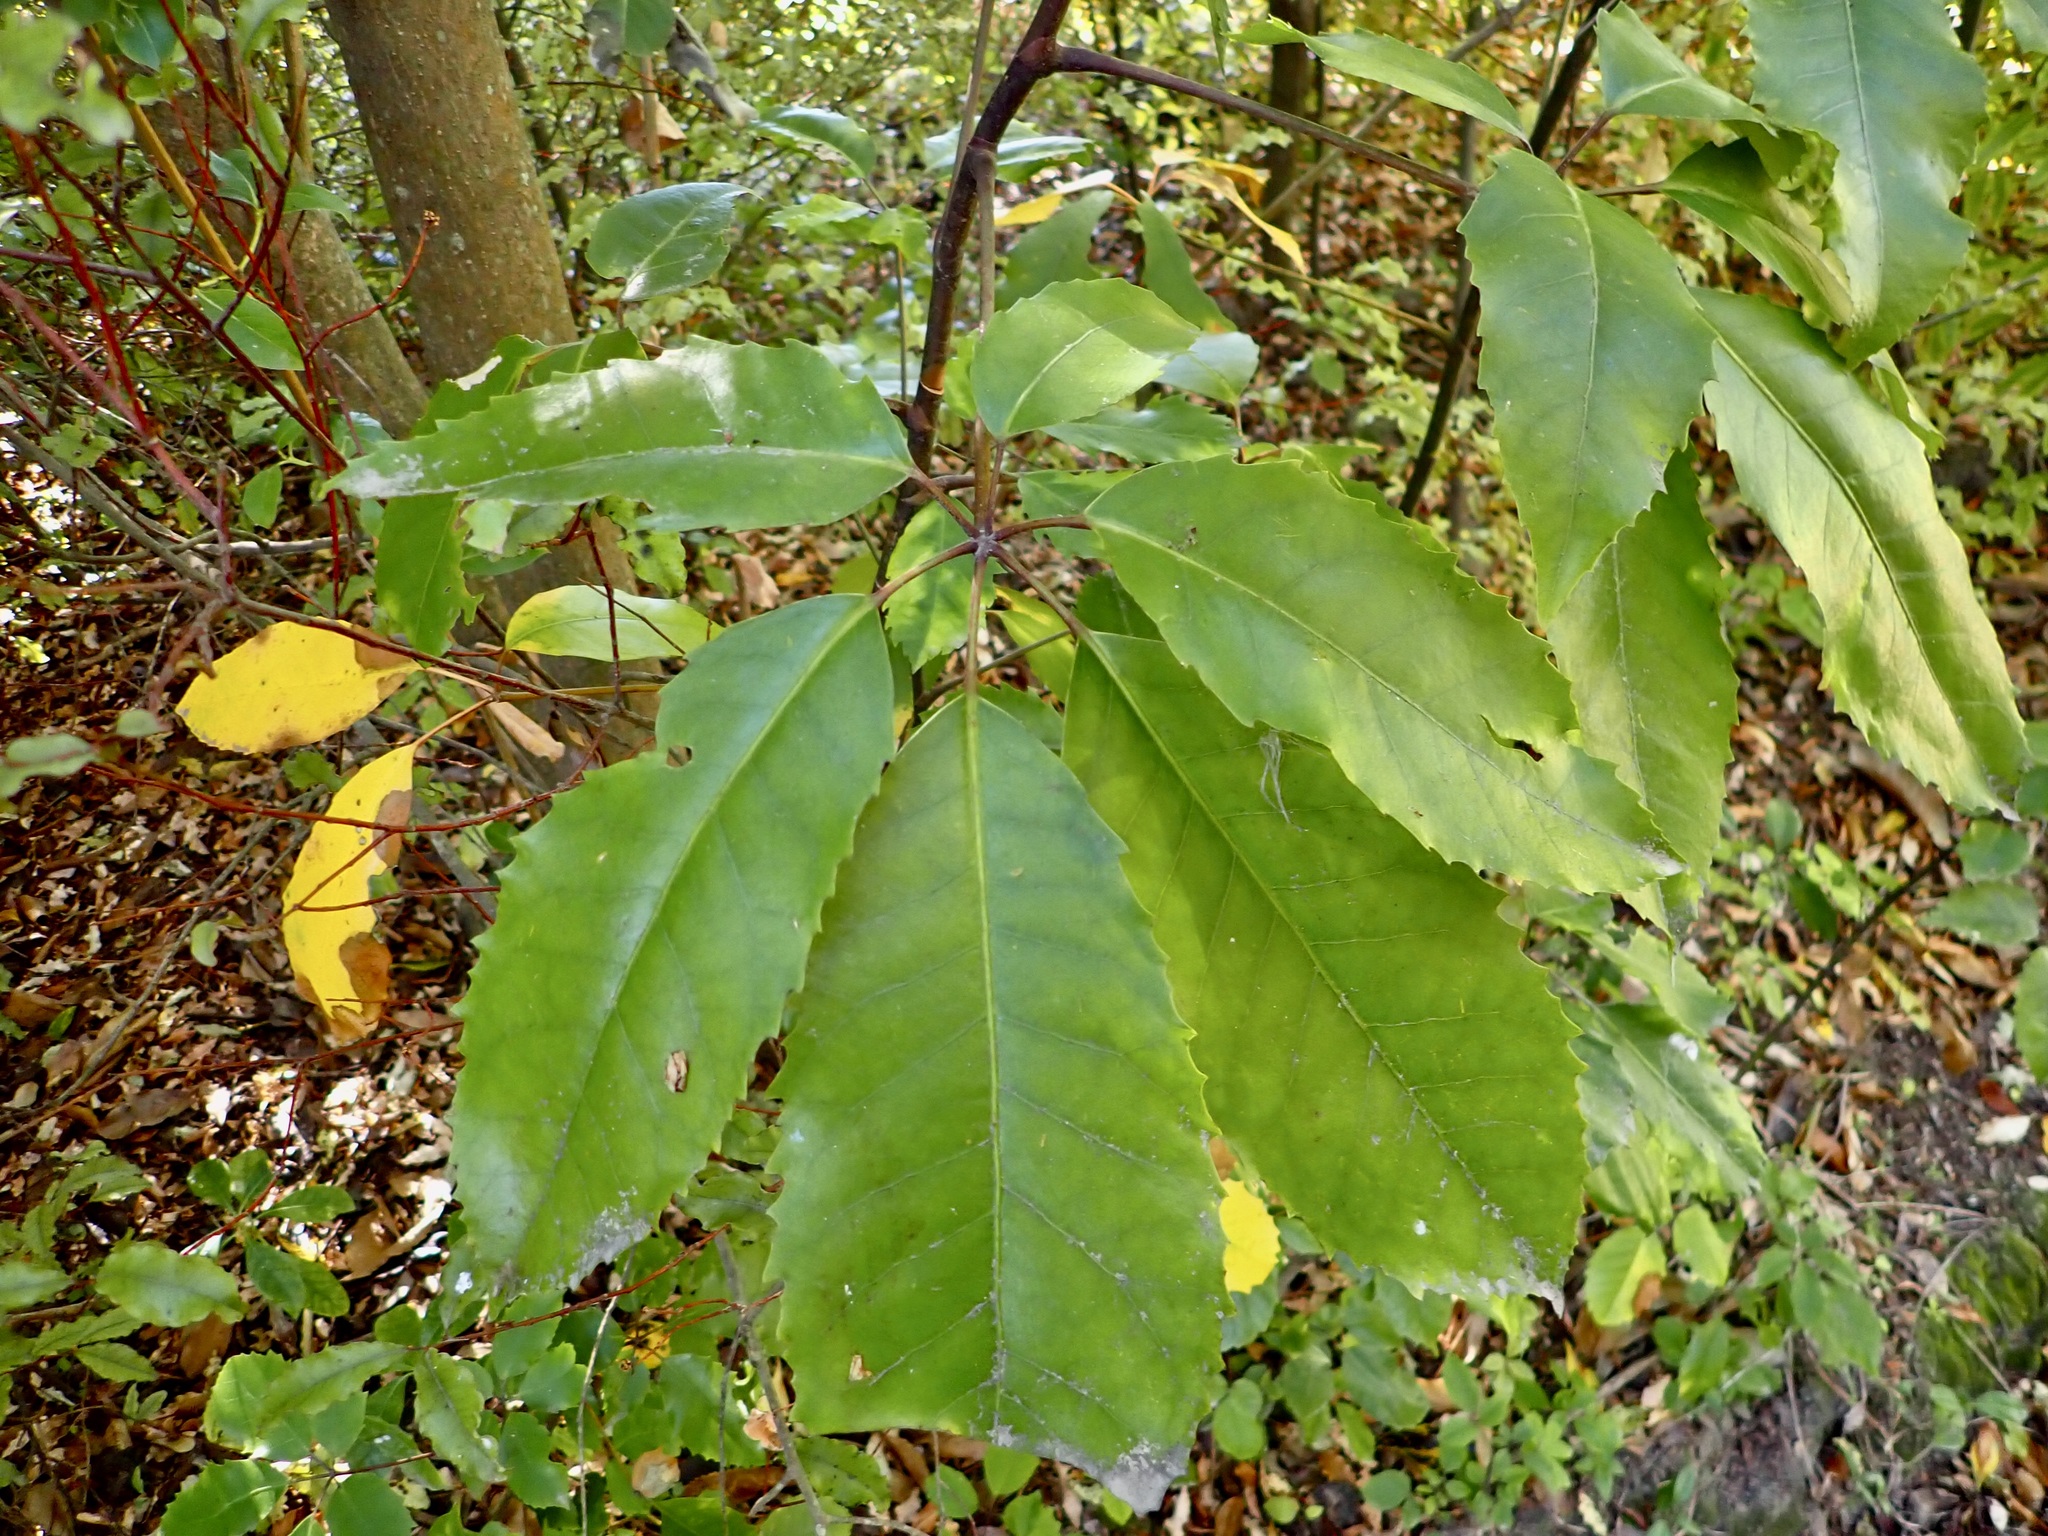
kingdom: Plantae
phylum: Tracheophyta
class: Magnoliopsida
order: Apiales
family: Araliaceae
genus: Neopanax
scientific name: Neopanax arboreus
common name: Five-fingers
